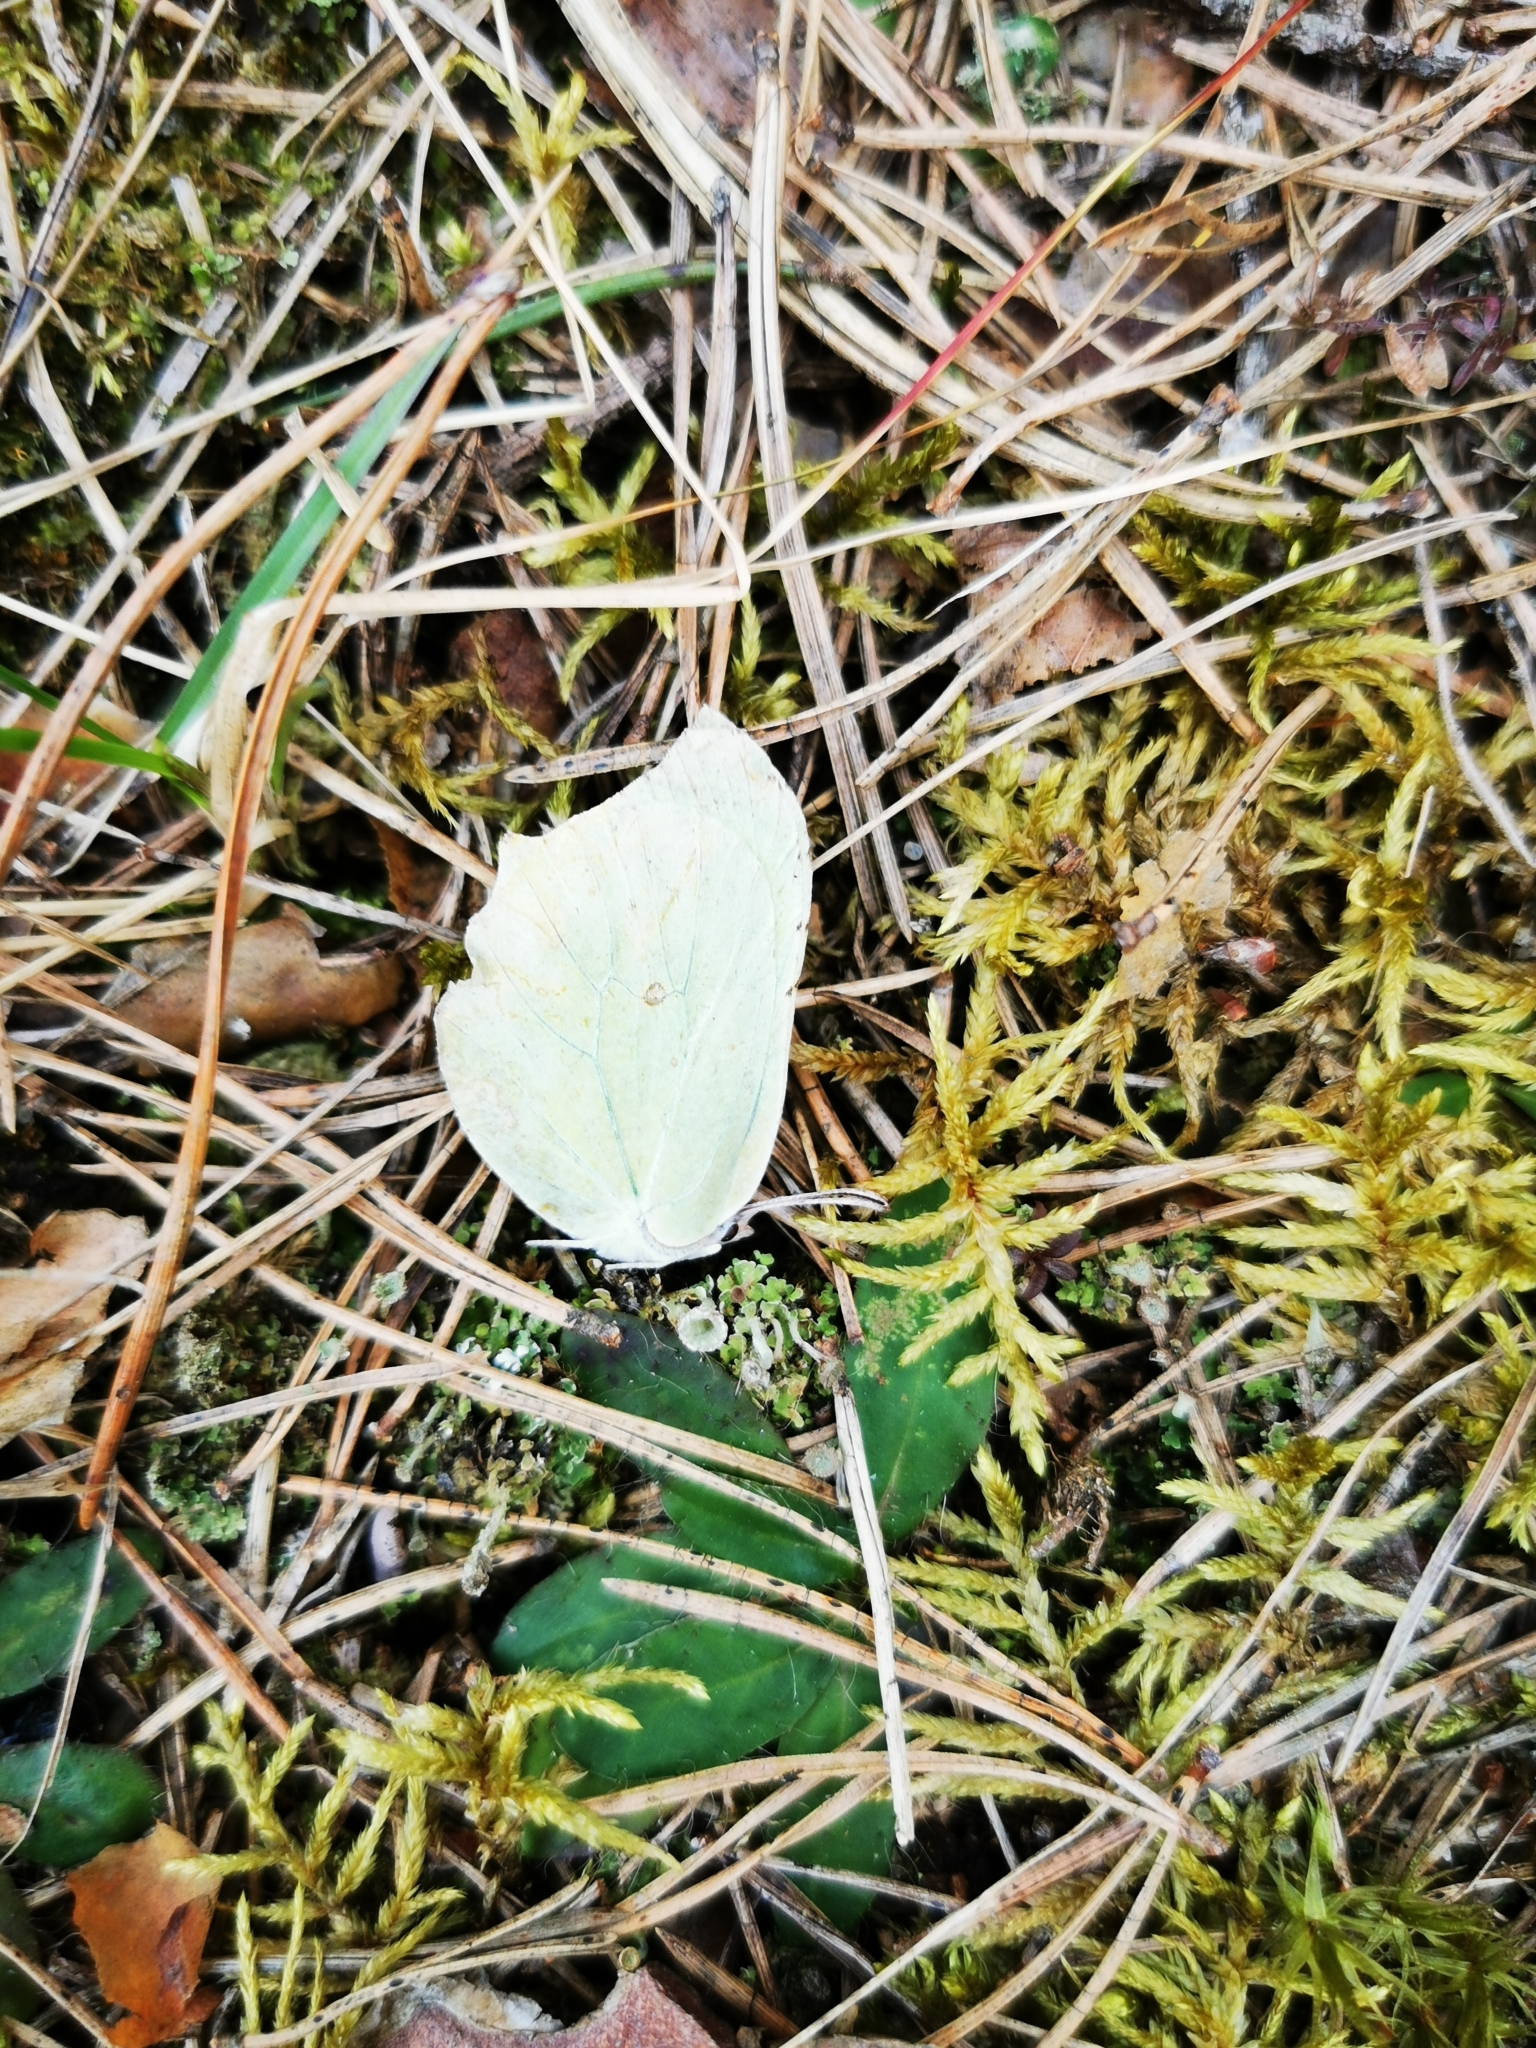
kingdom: Animalia
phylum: Arthropoda
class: Insecta
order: Lepidoptera
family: Pieridae
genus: Gonepteryx
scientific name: Gonepteryx rhamni
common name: Brimstone
